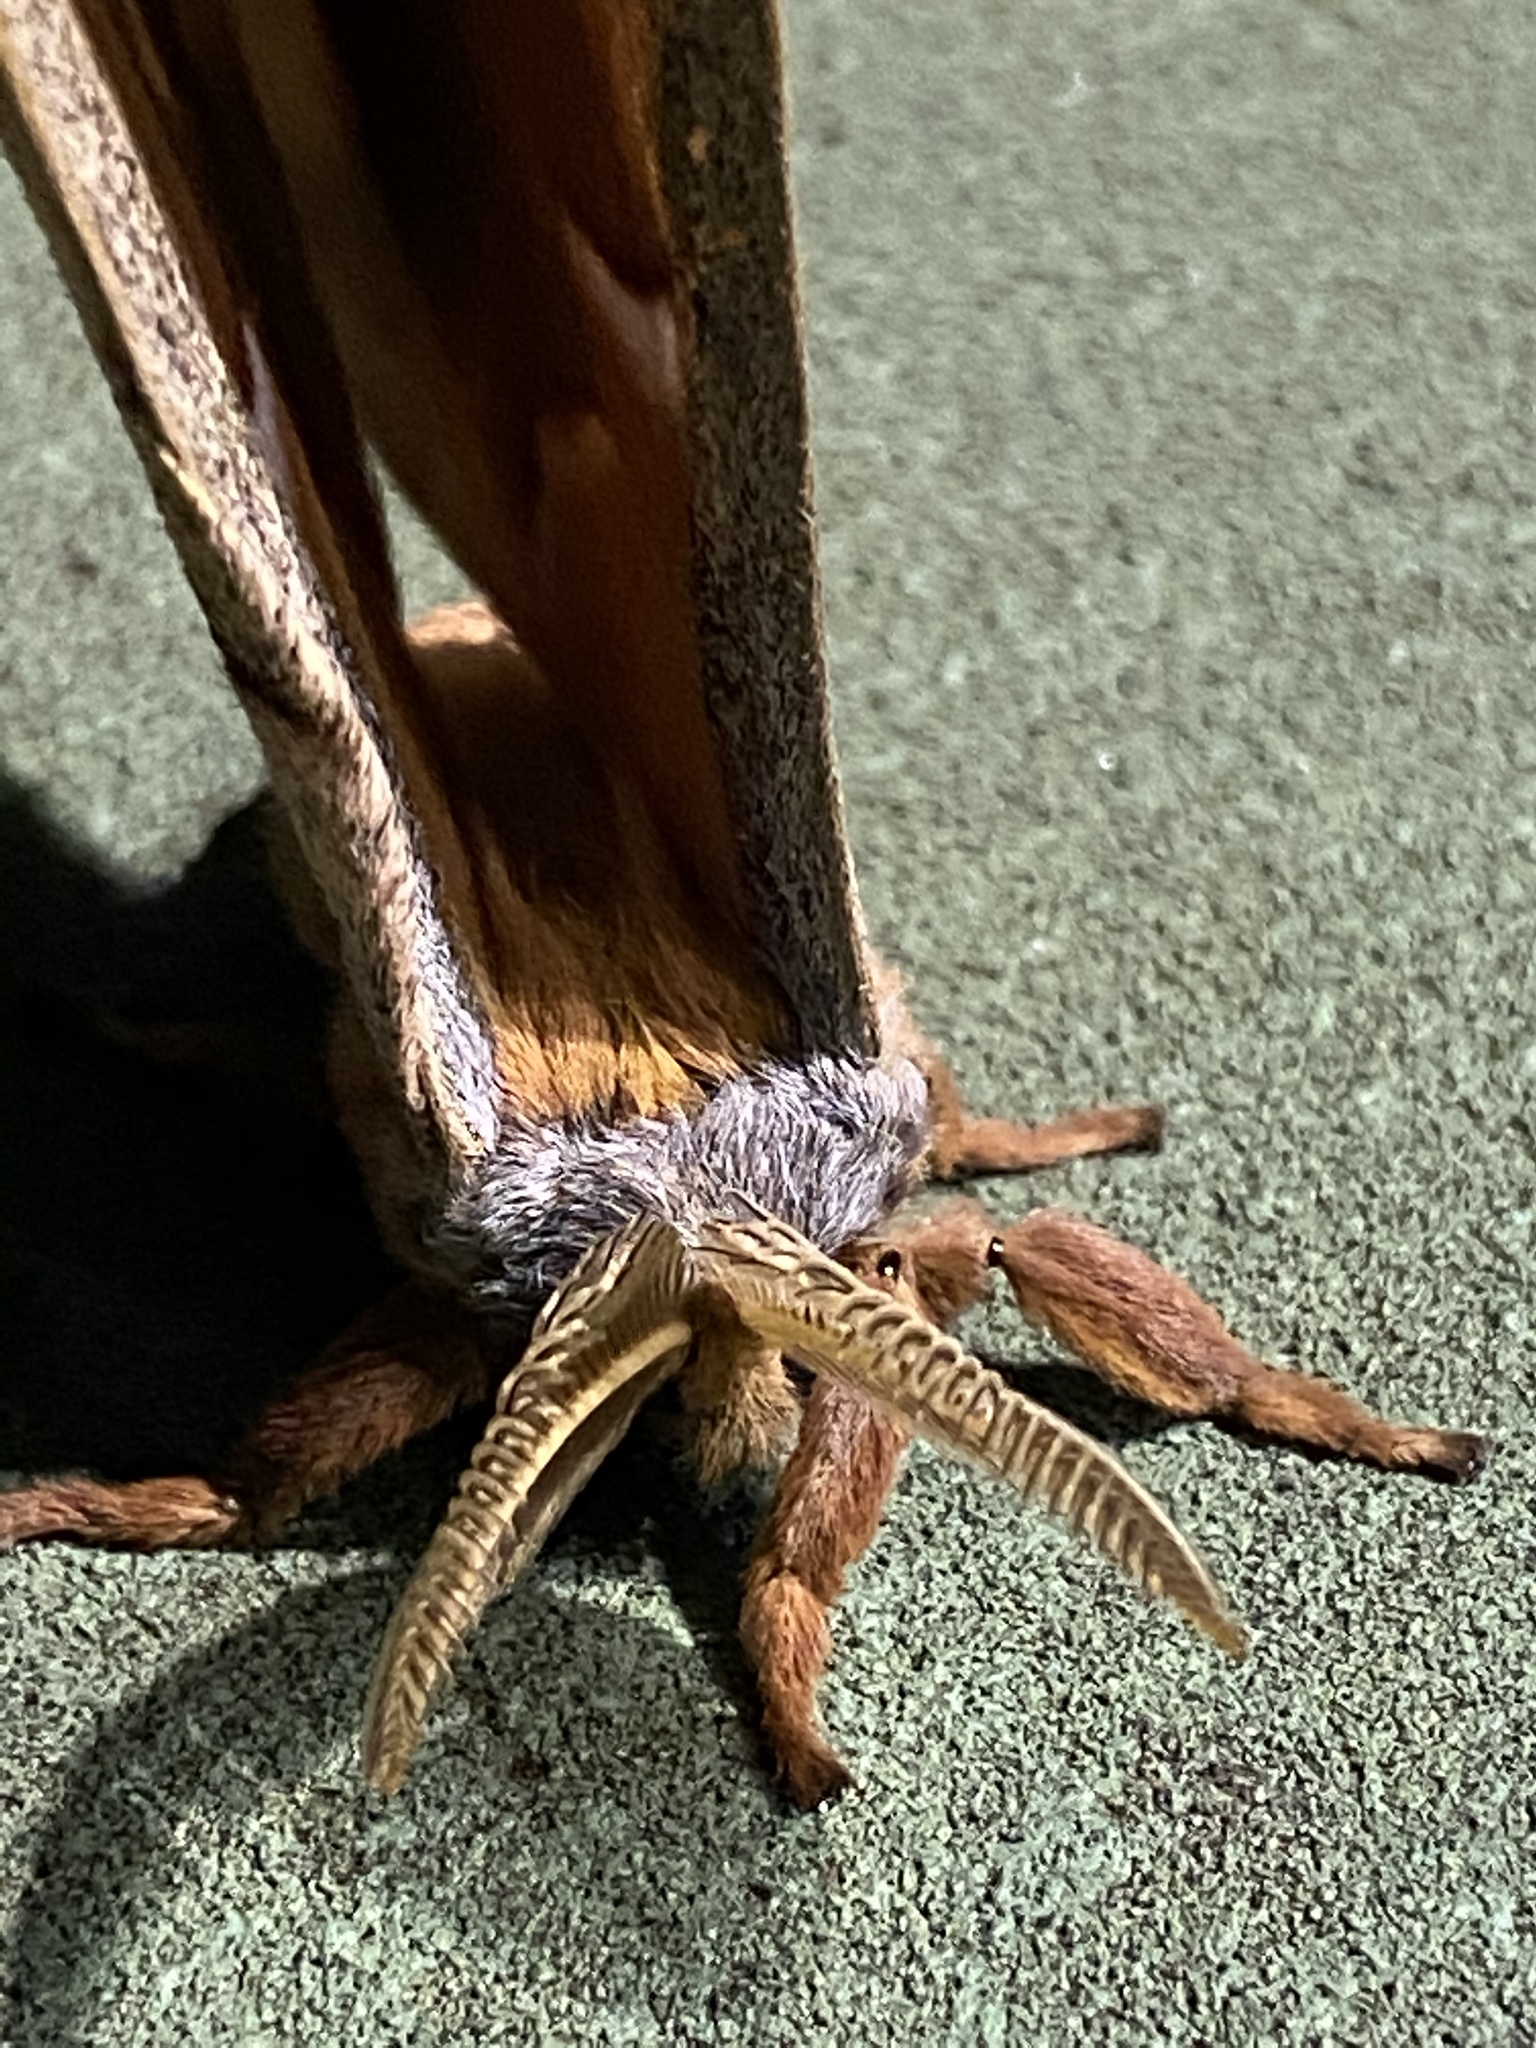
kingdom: Animalia
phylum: Arthropoda
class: Insecta
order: Lepidoptera
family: Saturniidae
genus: Antheraea
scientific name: Antheraea polyphemus
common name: Polyphemus moth
